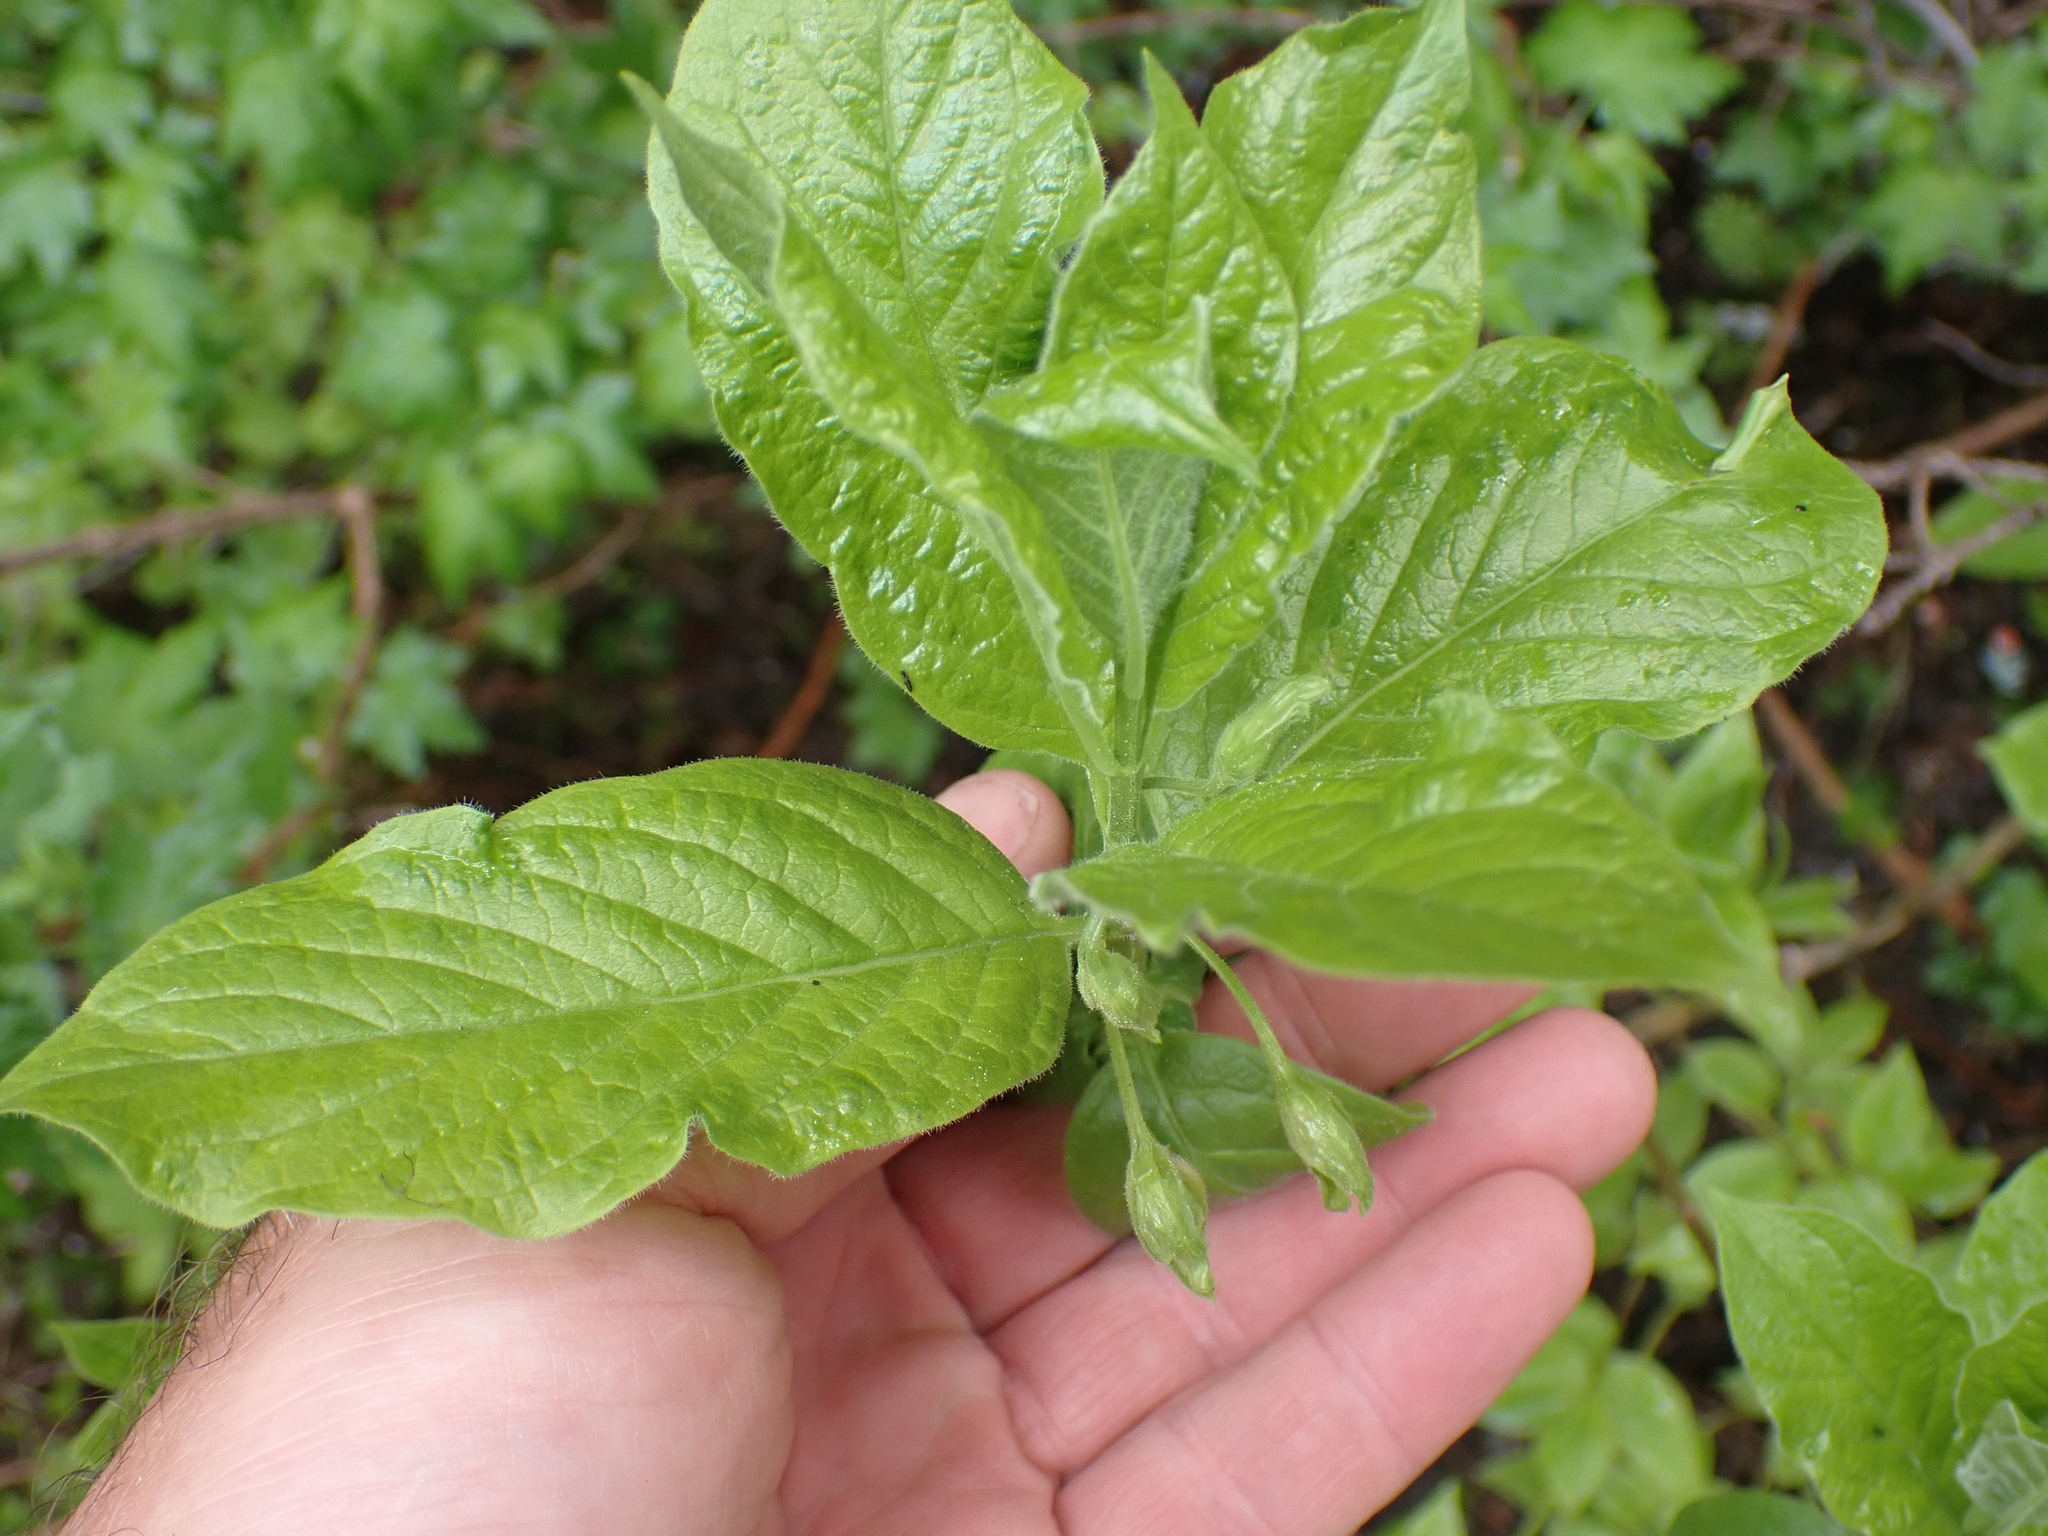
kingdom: Plantae
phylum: Tracheophyta
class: Magnoliopsida
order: Dipsacales
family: Caprifoliaceae
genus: Lonicera
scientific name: Lonicera involucrata
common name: Californian honeysuckle
